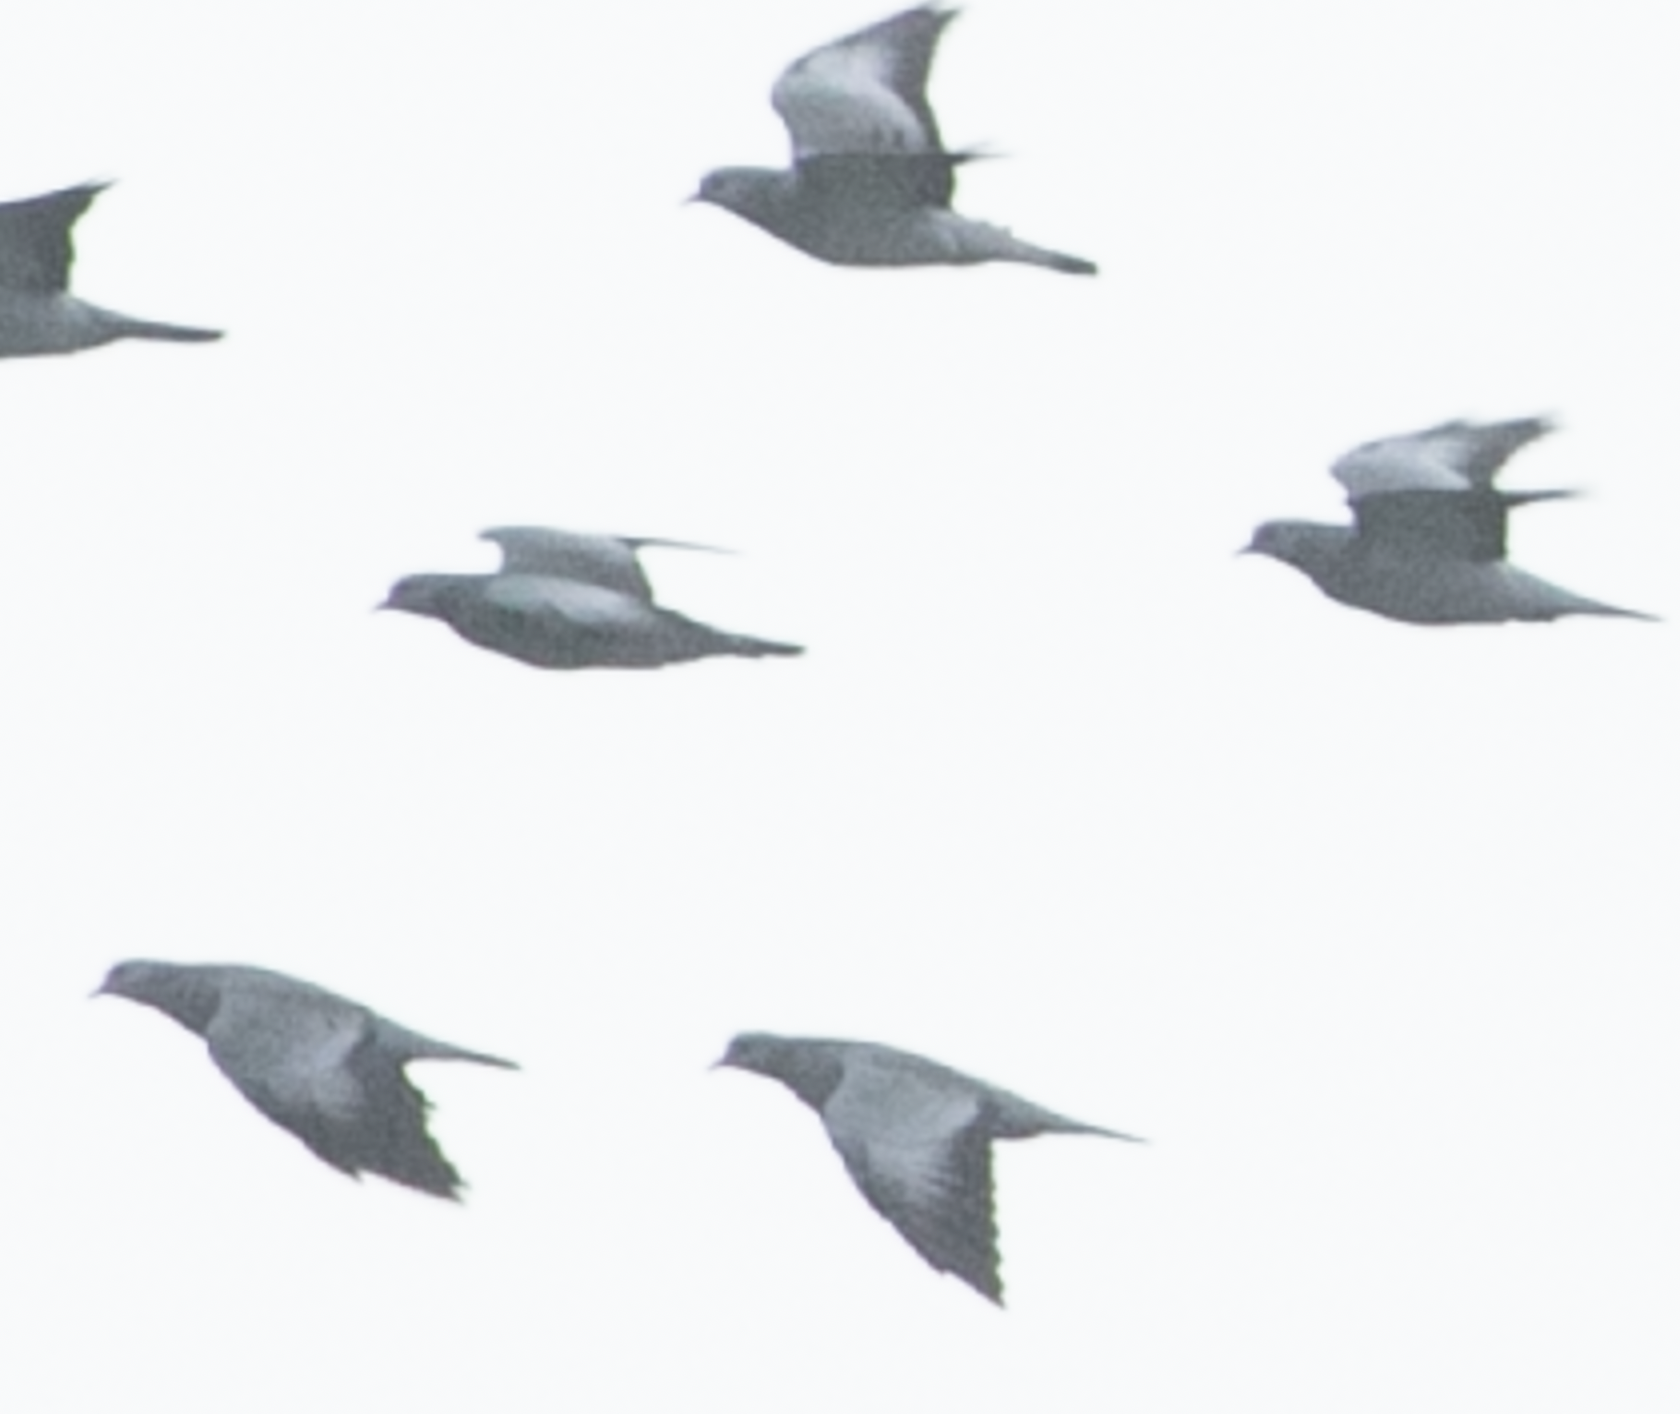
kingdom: Animalia
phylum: Chordata
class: Aves
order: Columbiformes
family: Columbidae
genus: Columba
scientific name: Columba oenas
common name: Stock dove
